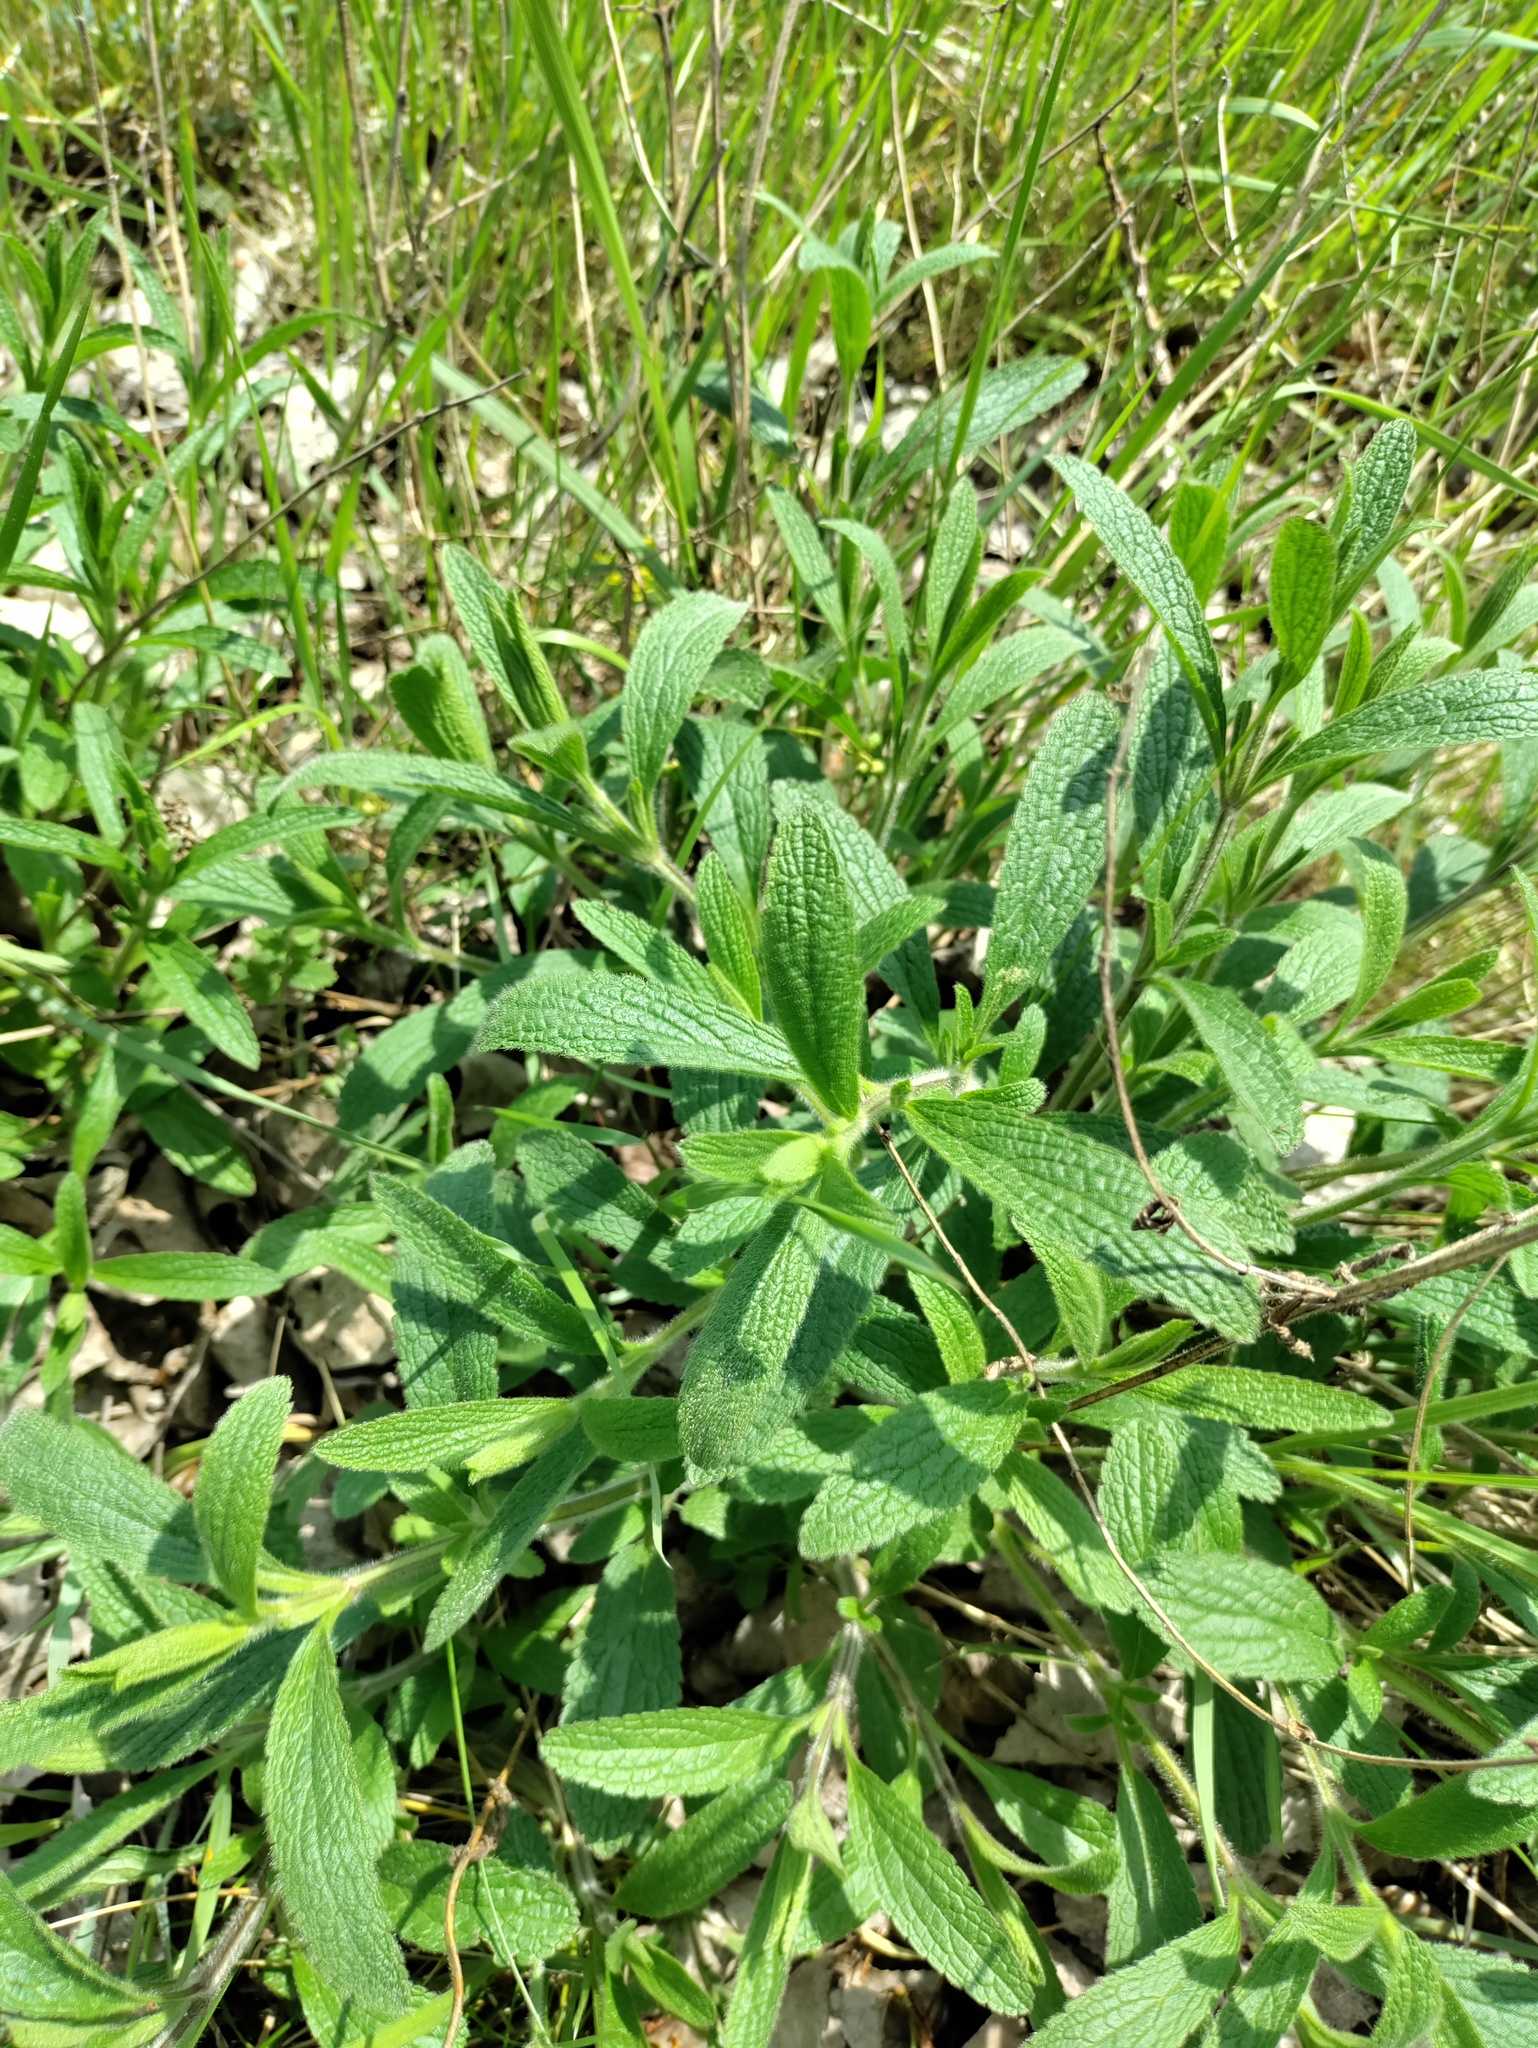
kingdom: Plantae
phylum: Tracheophyta
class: Magnoliopsida
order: Lamiales
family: Lamiaceae
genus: Stachys
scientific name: Stachys recta
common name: Perennial yellow-woundwort
